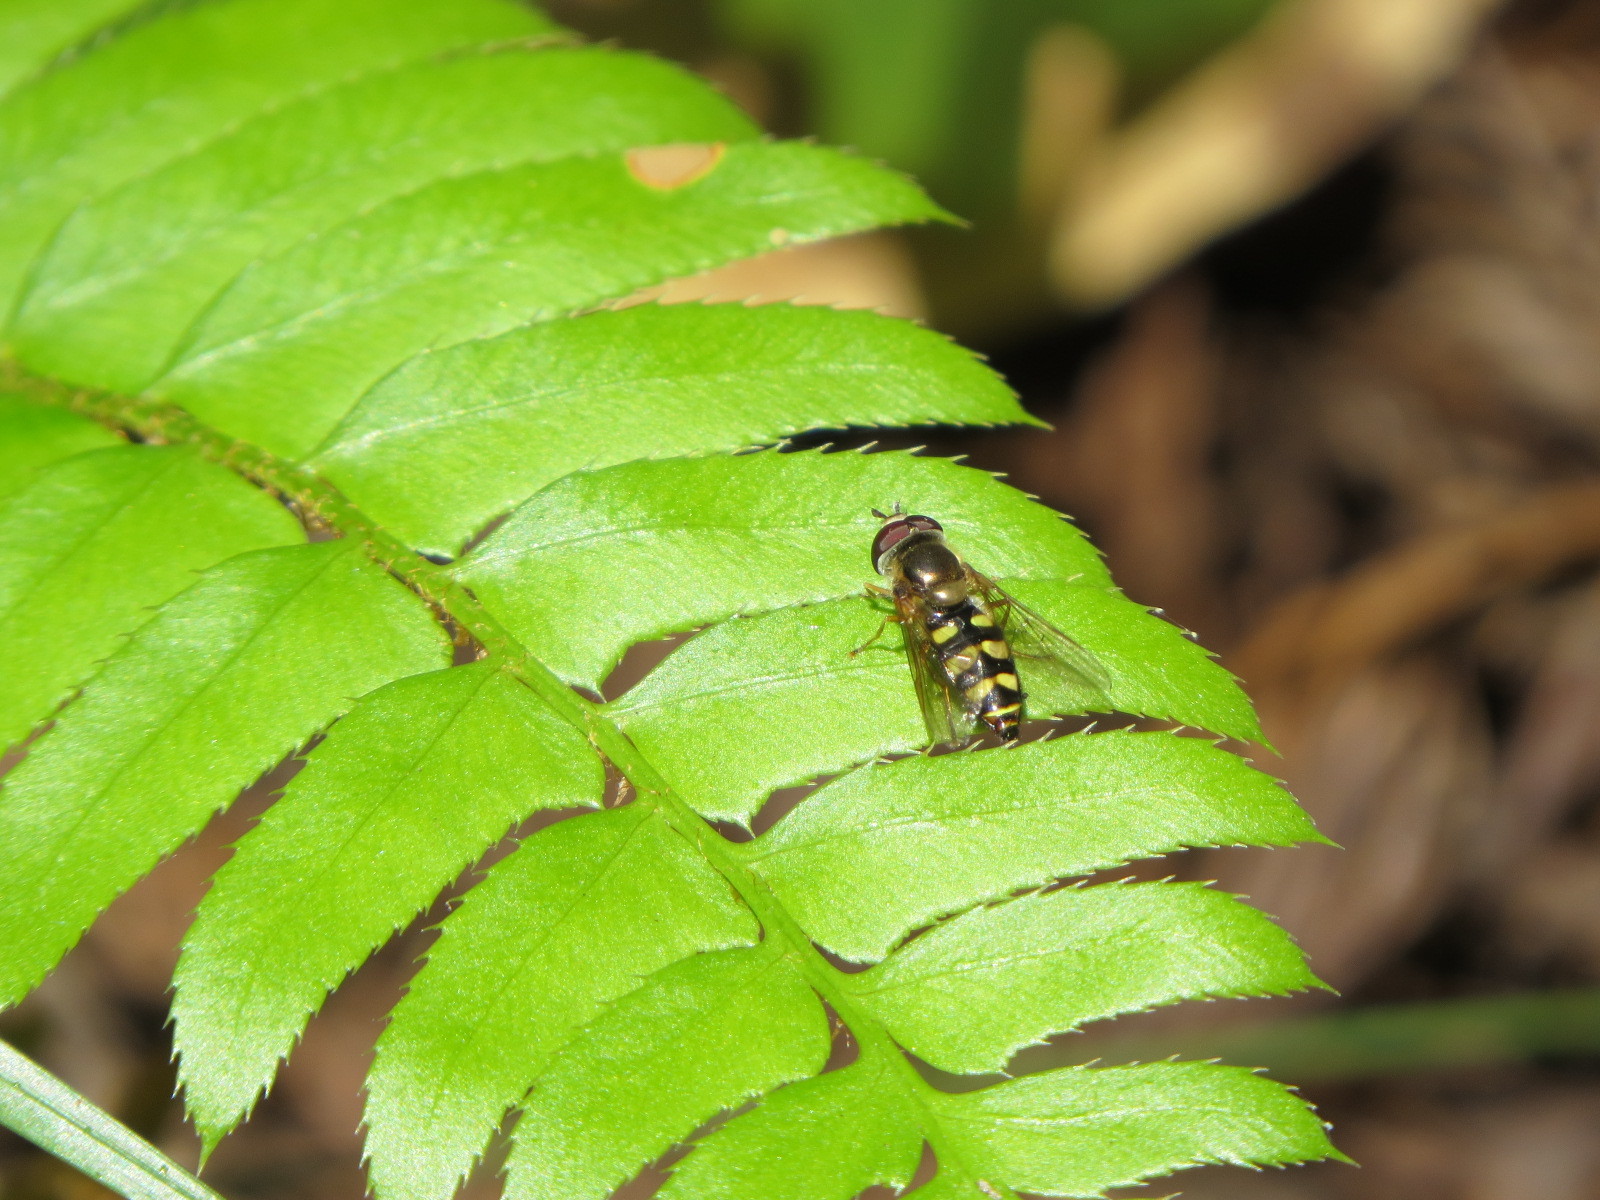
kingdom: Animalia
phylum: Arthropoda
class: Insecta
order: Diptera
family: Syrphidae
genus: Eupeodes
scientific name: Eupeodes fumipennis
